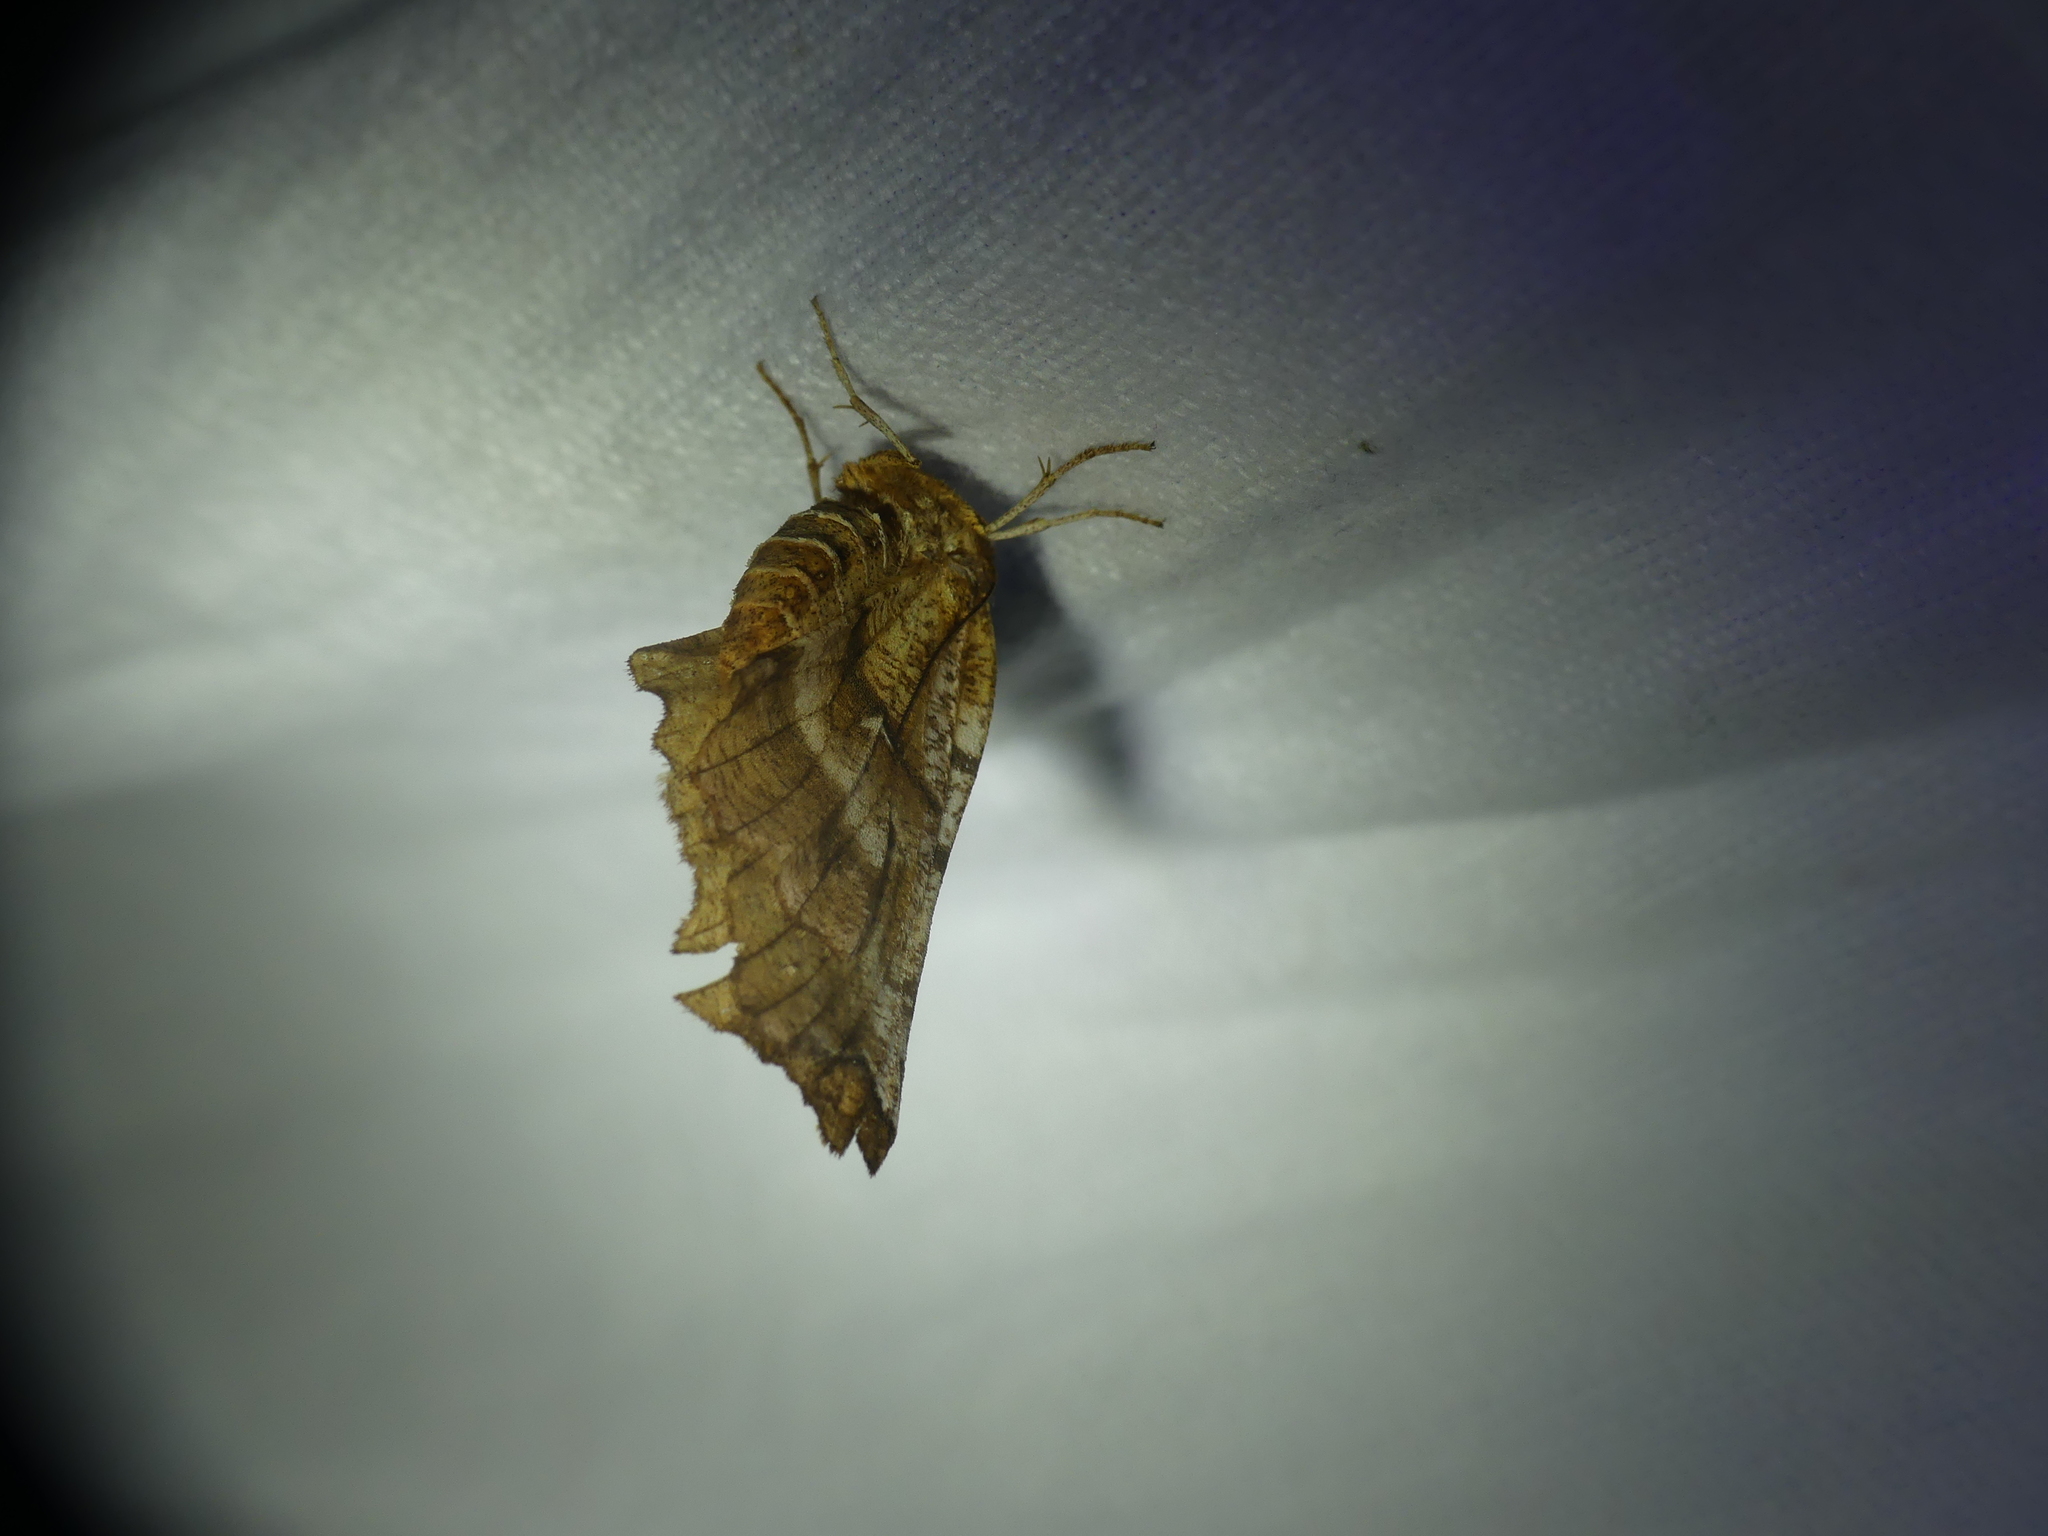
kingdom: Animalia
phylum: Arthropoda
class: Insecta
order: Lepidoptera
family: Geometridae
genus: Selenia
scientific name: Selenia dentaria
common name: Early thorn
